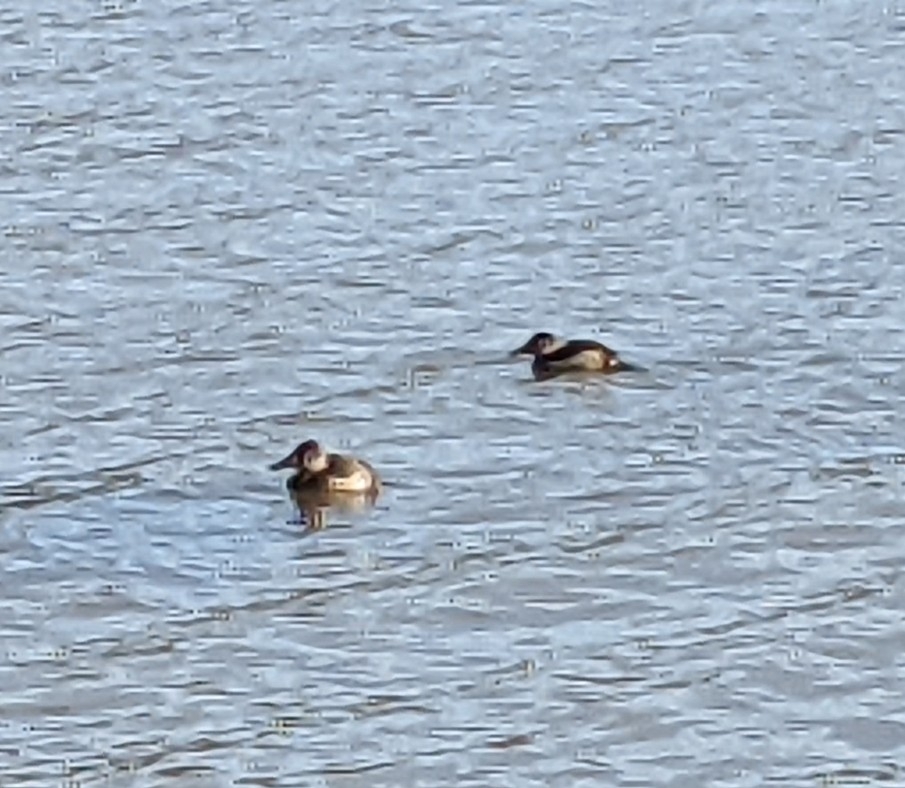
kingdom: Animalia
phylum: Chordata
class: Aves
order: Anseriformes
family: Anatidae
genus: Oxyura
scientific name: Oxyura jamaicensis
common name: Ruddy duck
